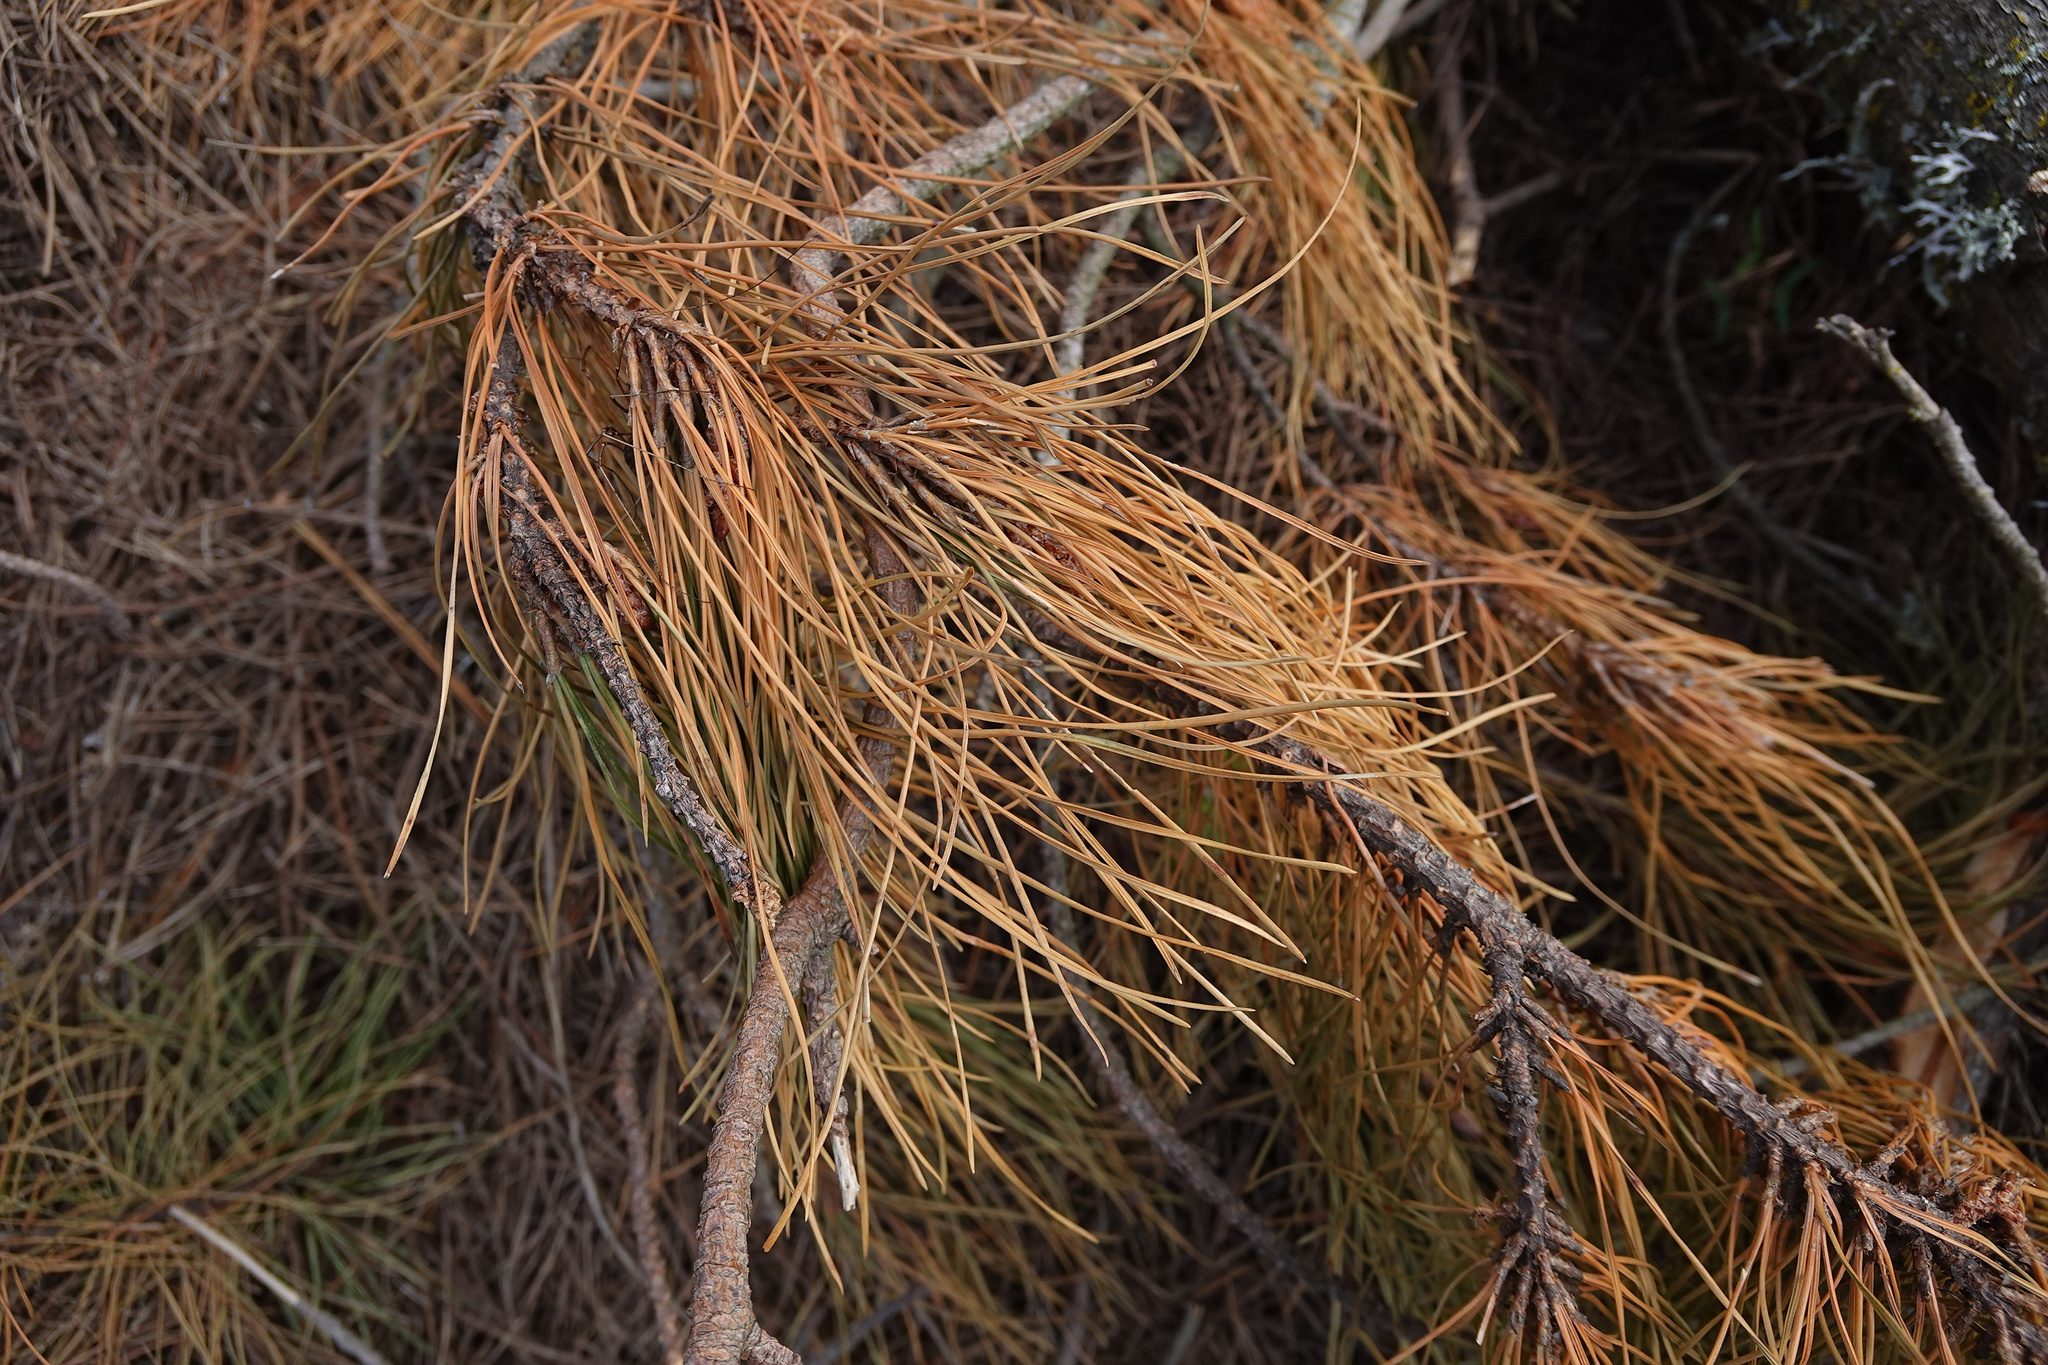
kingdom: Plantae
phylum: Tracheophyta
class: Pinopsida
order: Pinales
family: Pinaceae
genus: Pinus
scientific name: Pinus radiata
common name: Monterey pine
